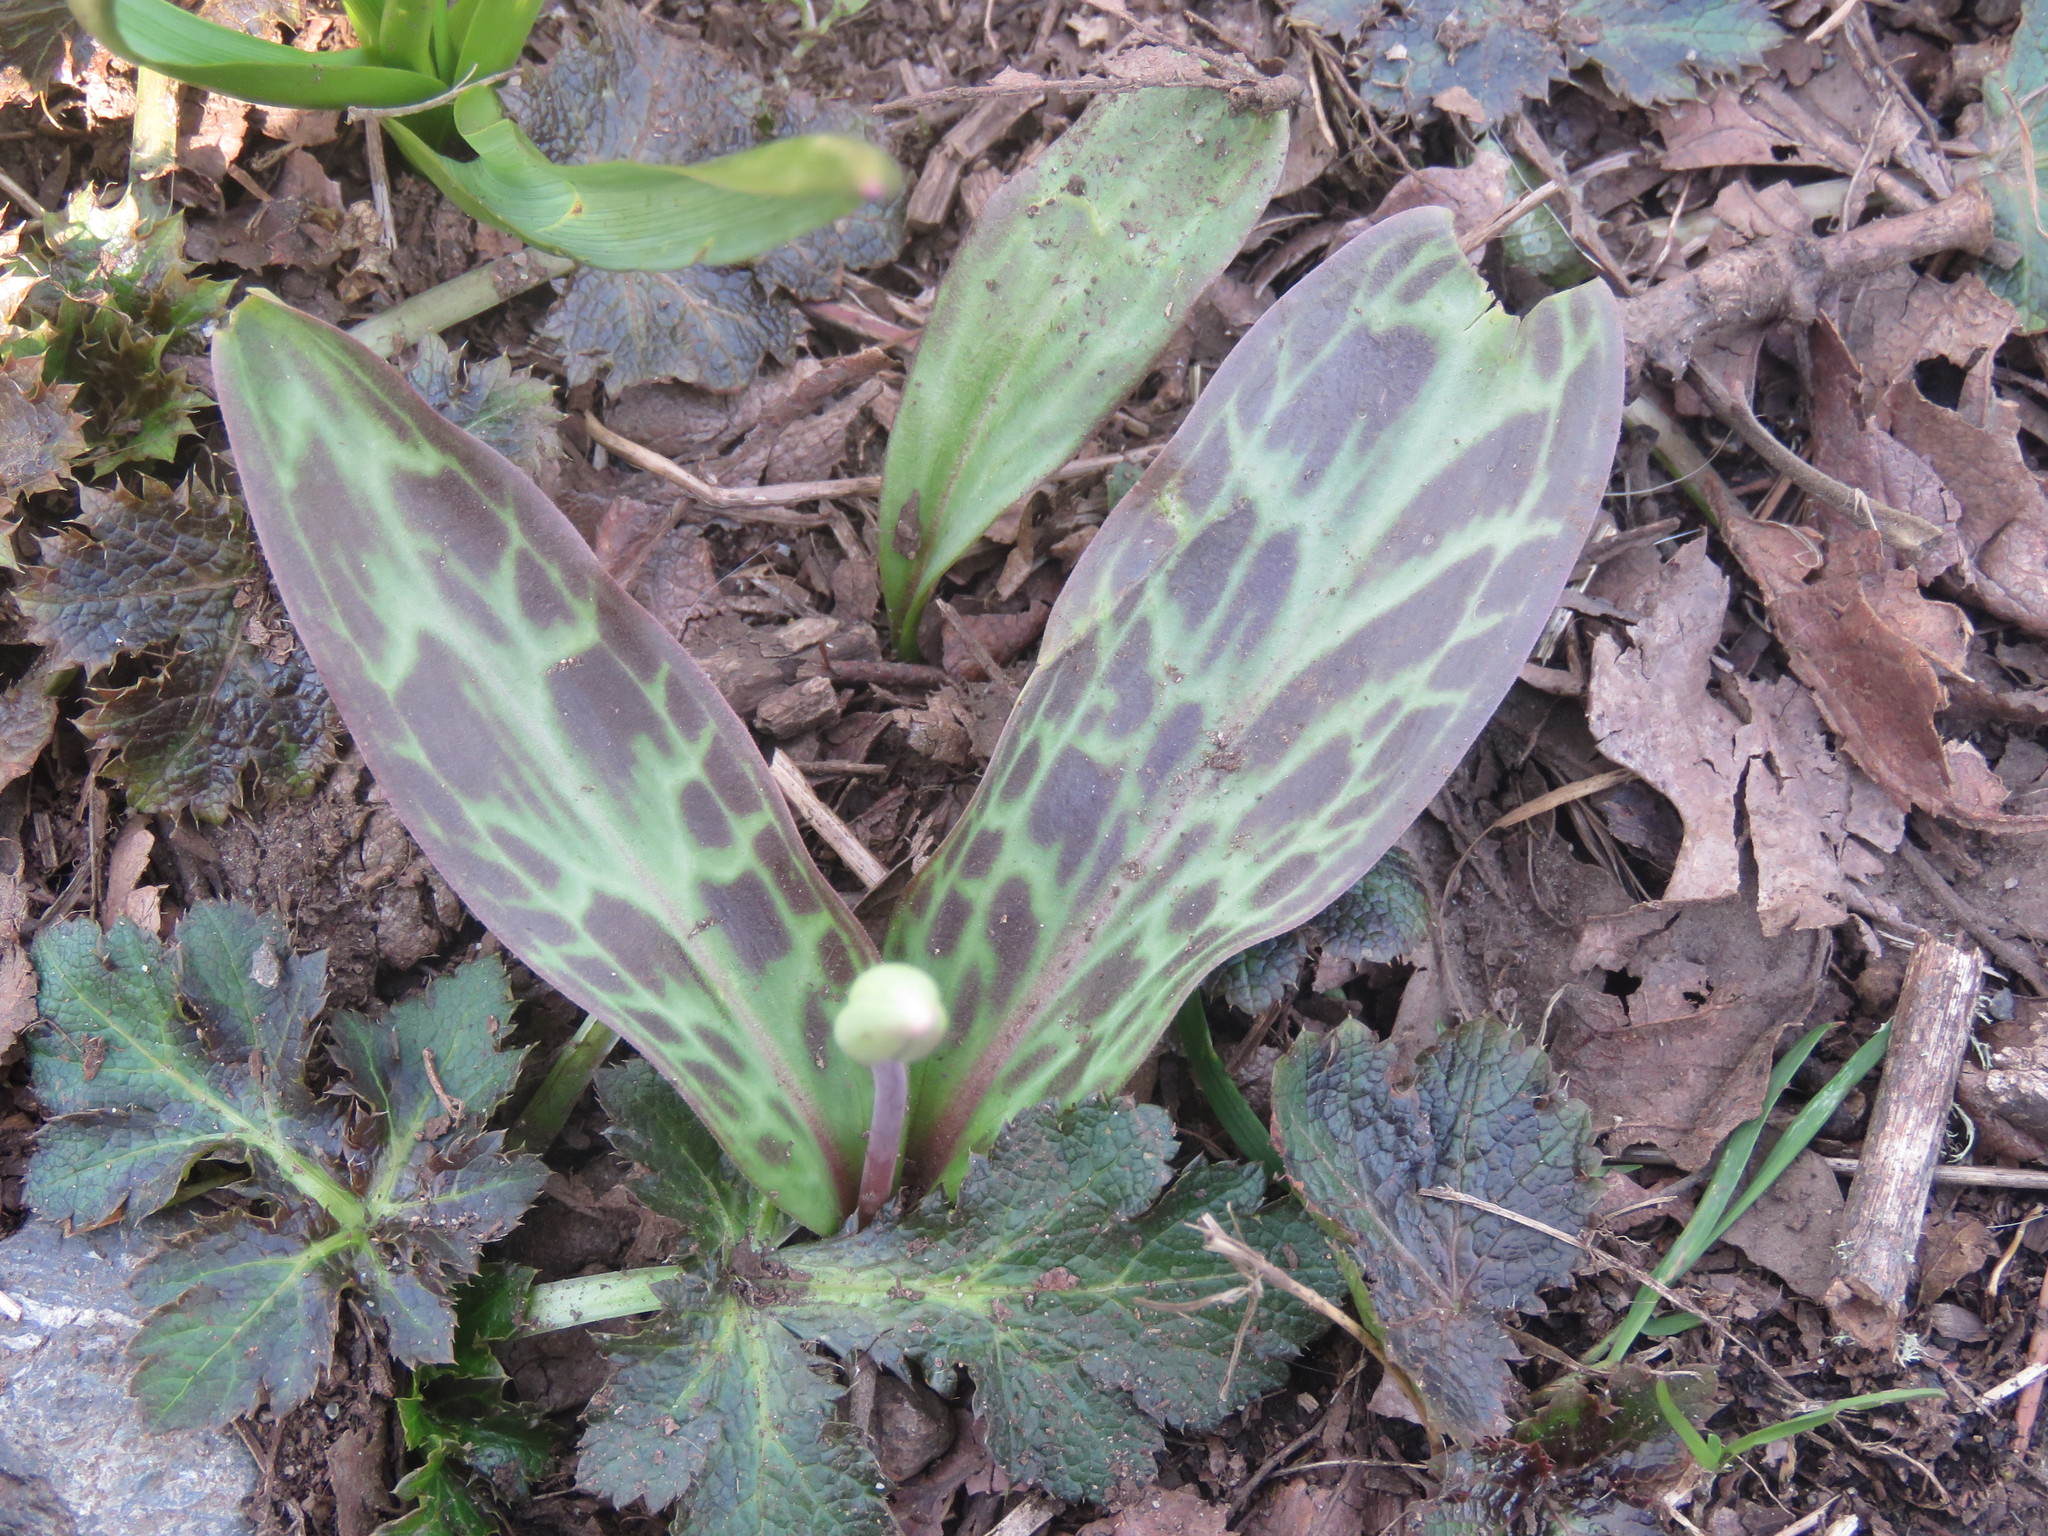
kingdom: Plantae
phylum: Tracheophyta
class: Liliopsida
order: Liliales
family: Liliaceae
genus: Erythronium
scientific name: Erythronium oregonum
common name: Giant adder's-tongue
